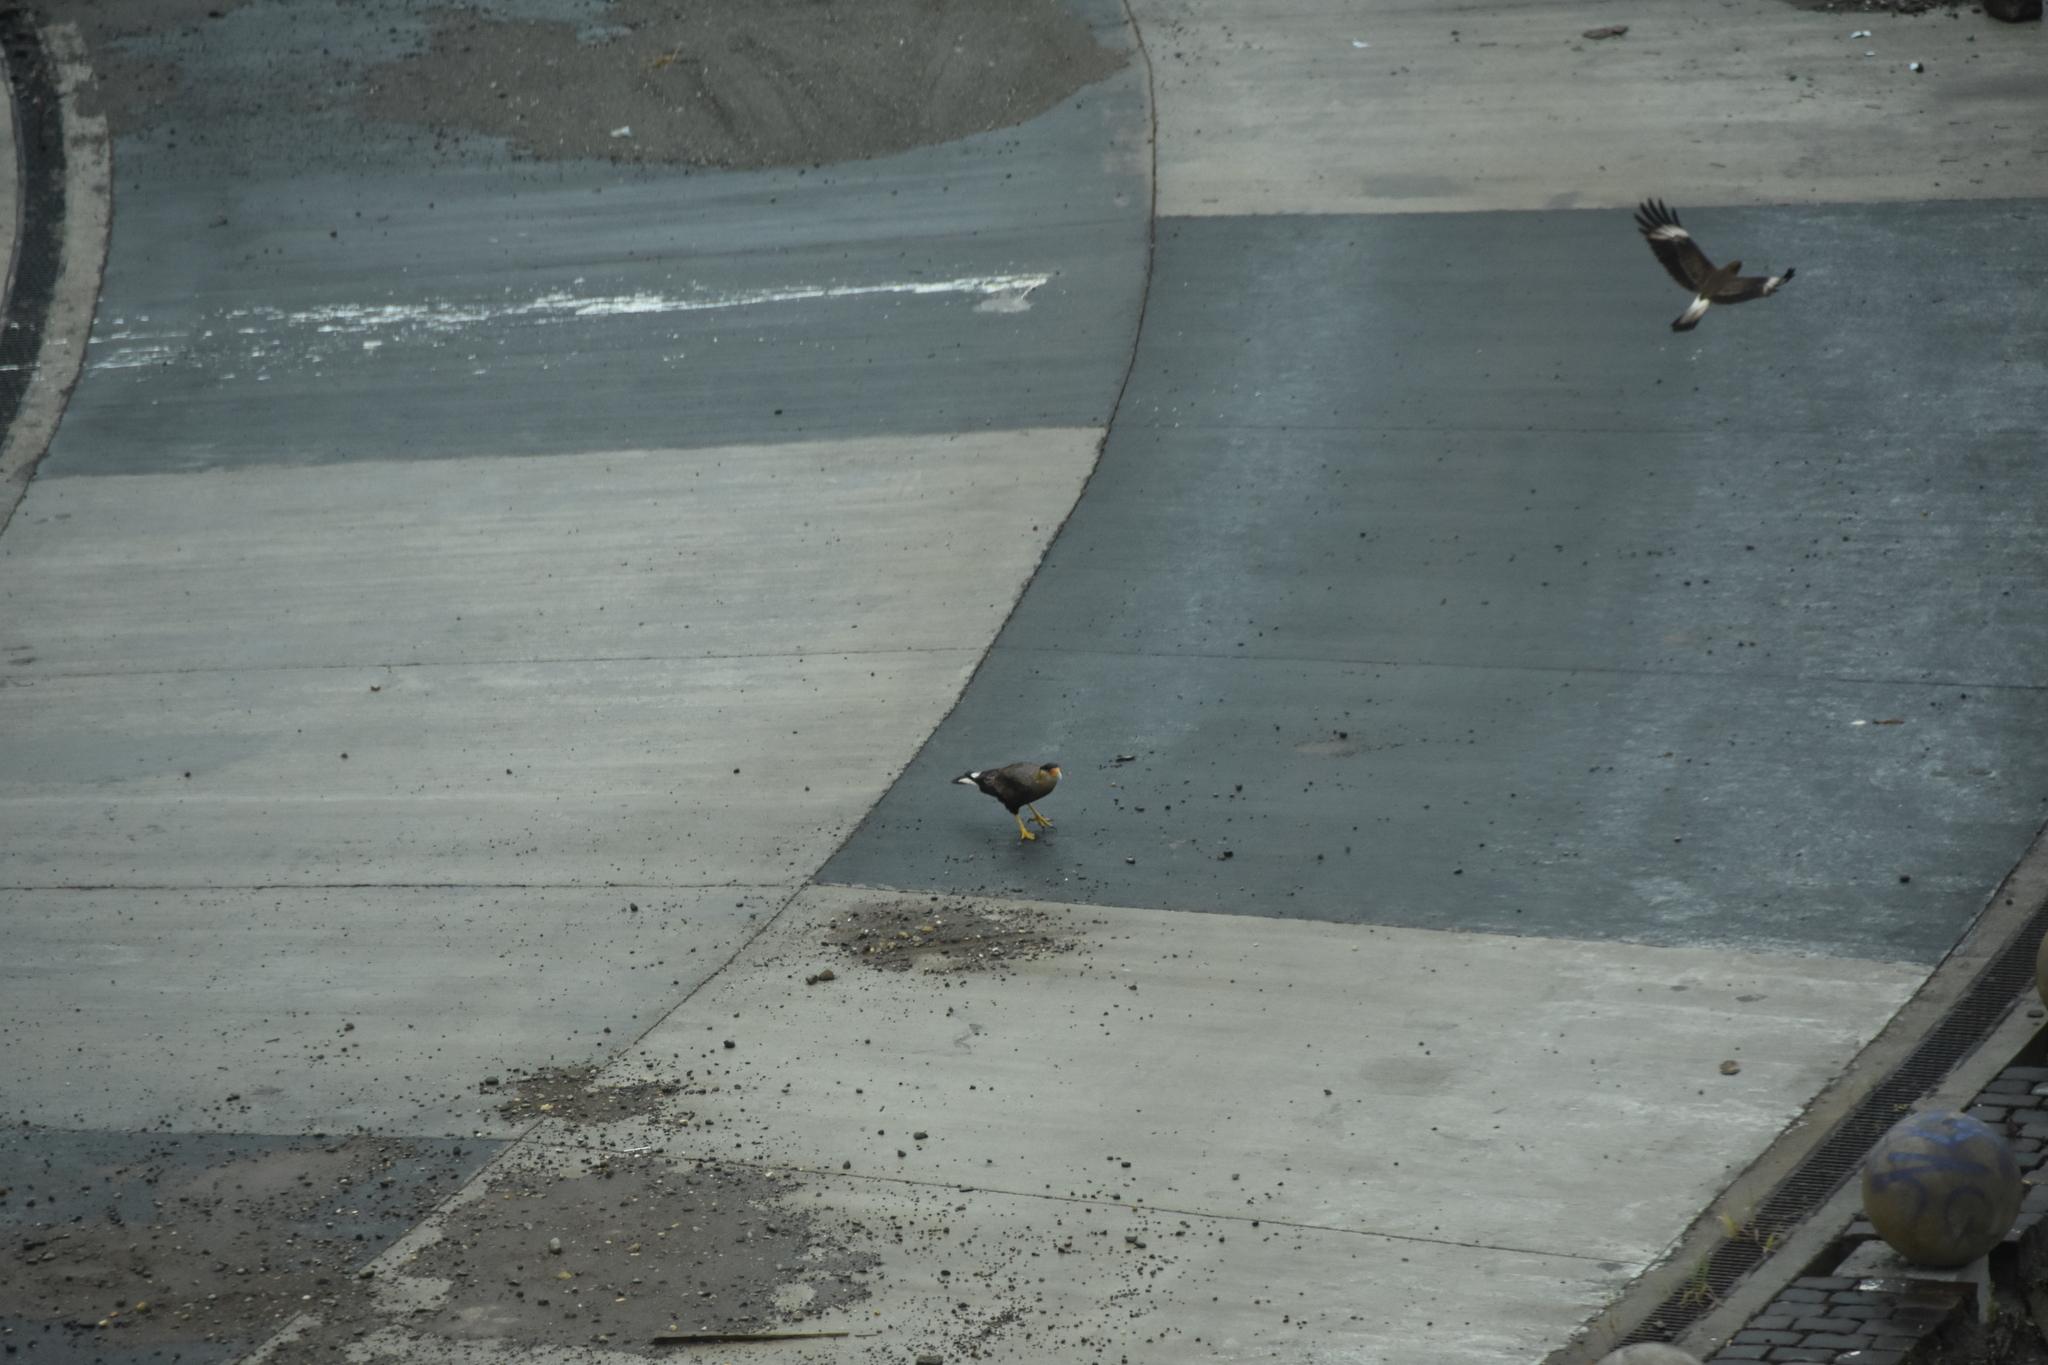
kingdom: Animalia
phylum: Chordata
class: Aves
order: Falconiformes
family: Falconidae
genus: Daptrius
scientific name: Daptrius
